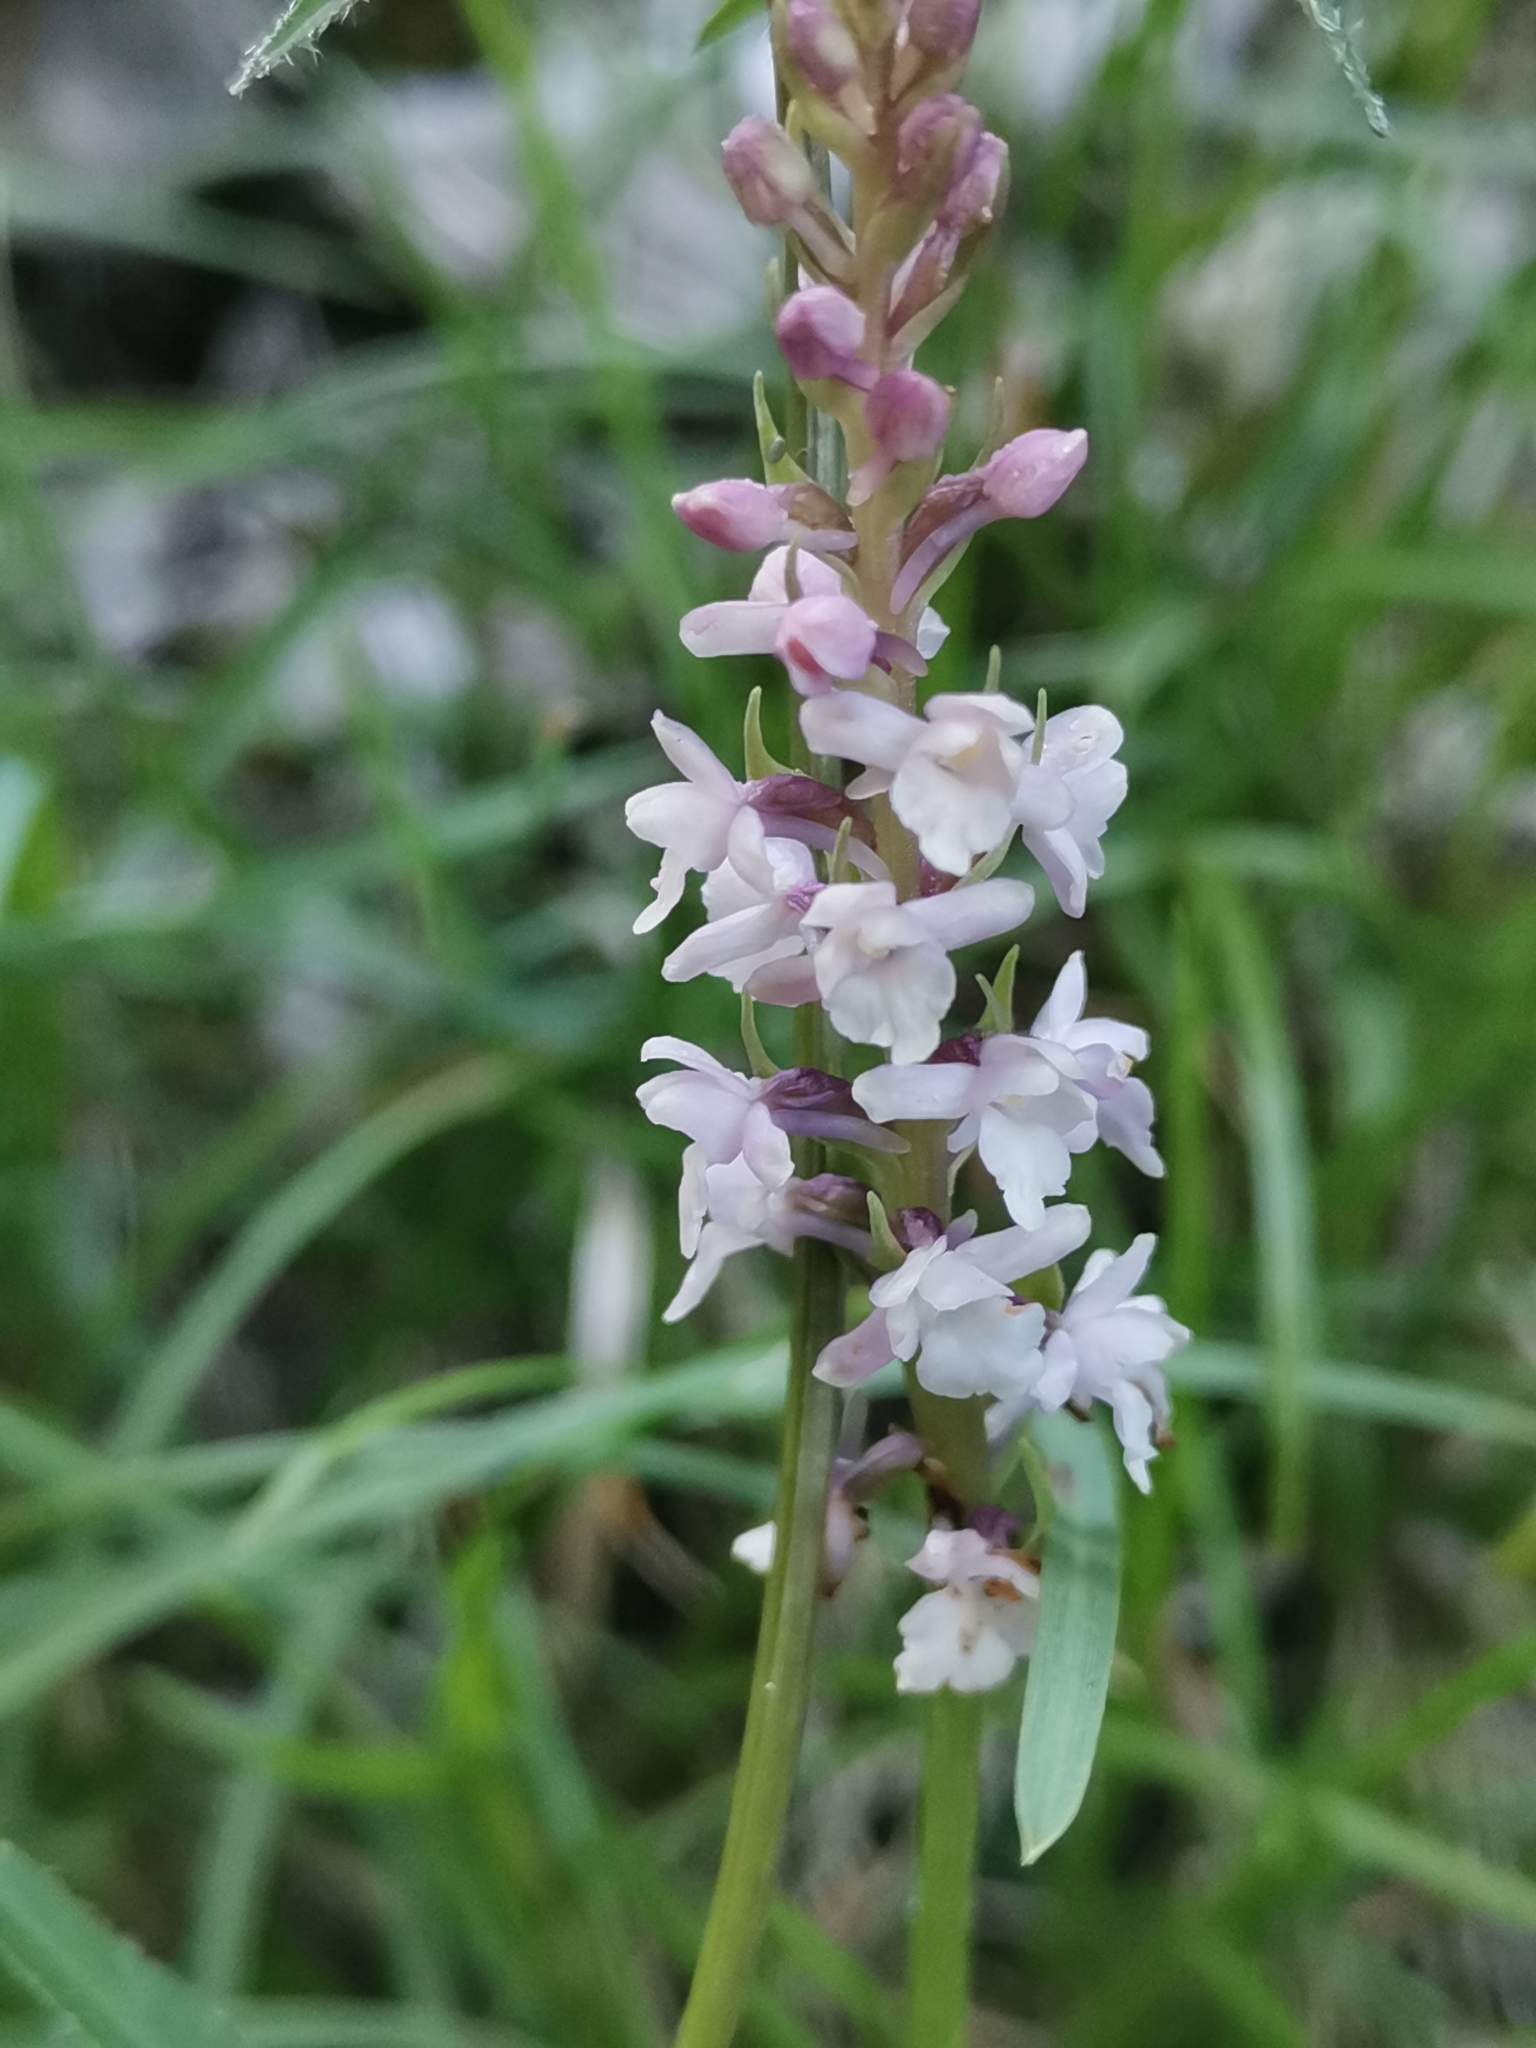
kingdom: Plantae
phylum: Tracheophyta
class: Liliopsida
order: Asparagales
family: Orchidaceae
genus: Gymnadenia
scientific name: Gymnadenia odoratissima
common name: Scented gymnadenia
